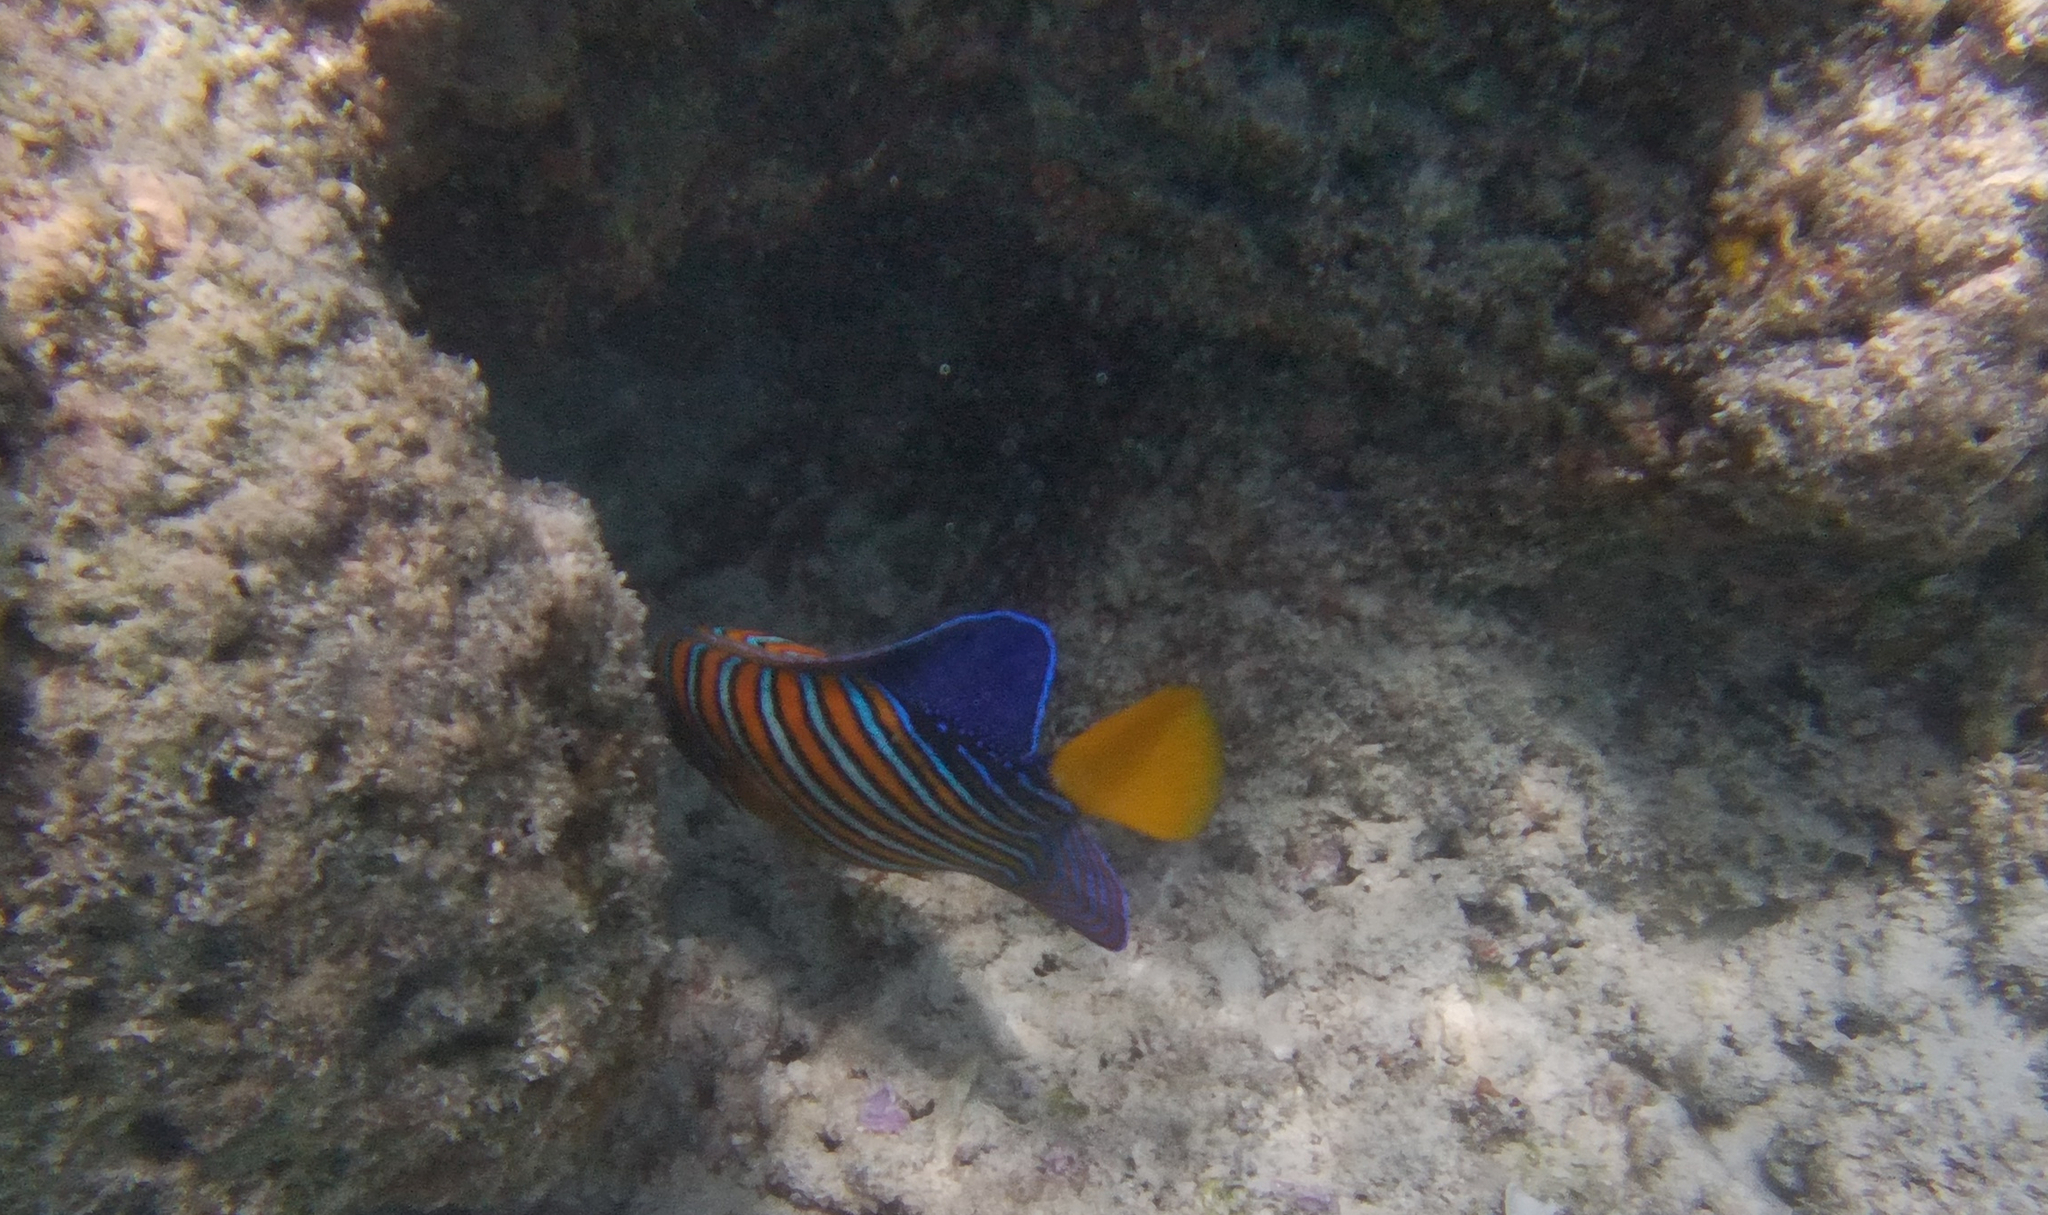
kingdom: Animalia
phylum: Chordata
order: Perciformes
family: Pomacanthidae
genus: Pygoplites
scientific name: Pygoplites diacanthus
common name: Regal angelfish
